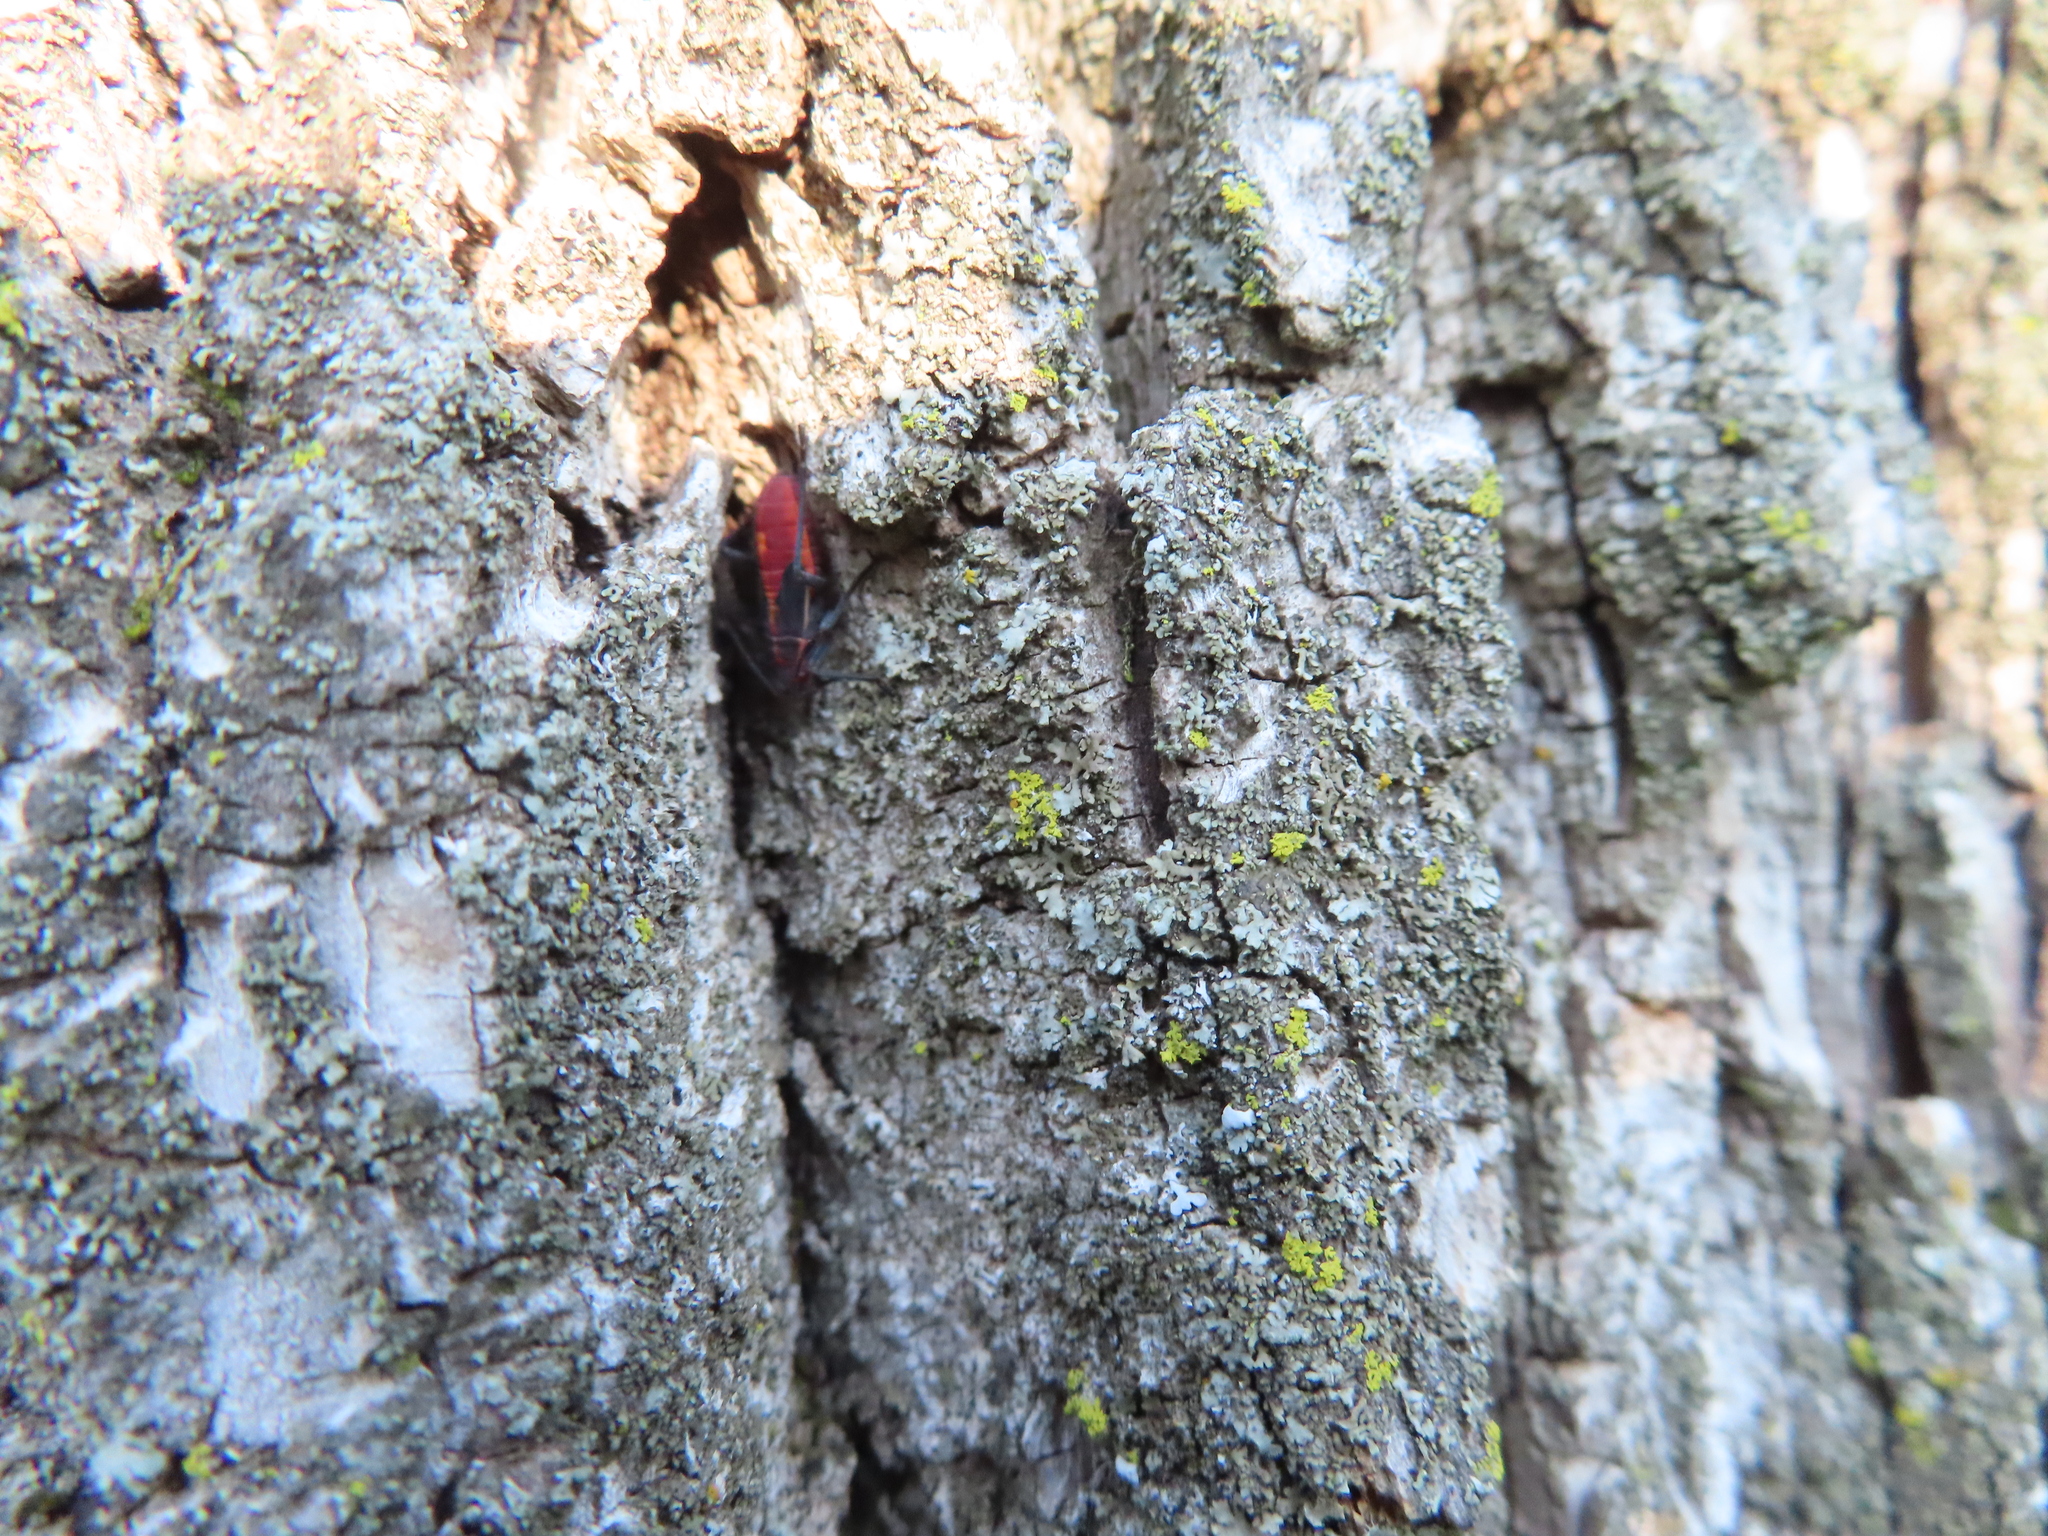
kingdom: Animalia
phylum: Arthropoda
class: Insecta
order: Hemiptera
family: Rhopalidae
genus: Boisea
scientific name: Boisea trivittata
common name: Boxelder bug
